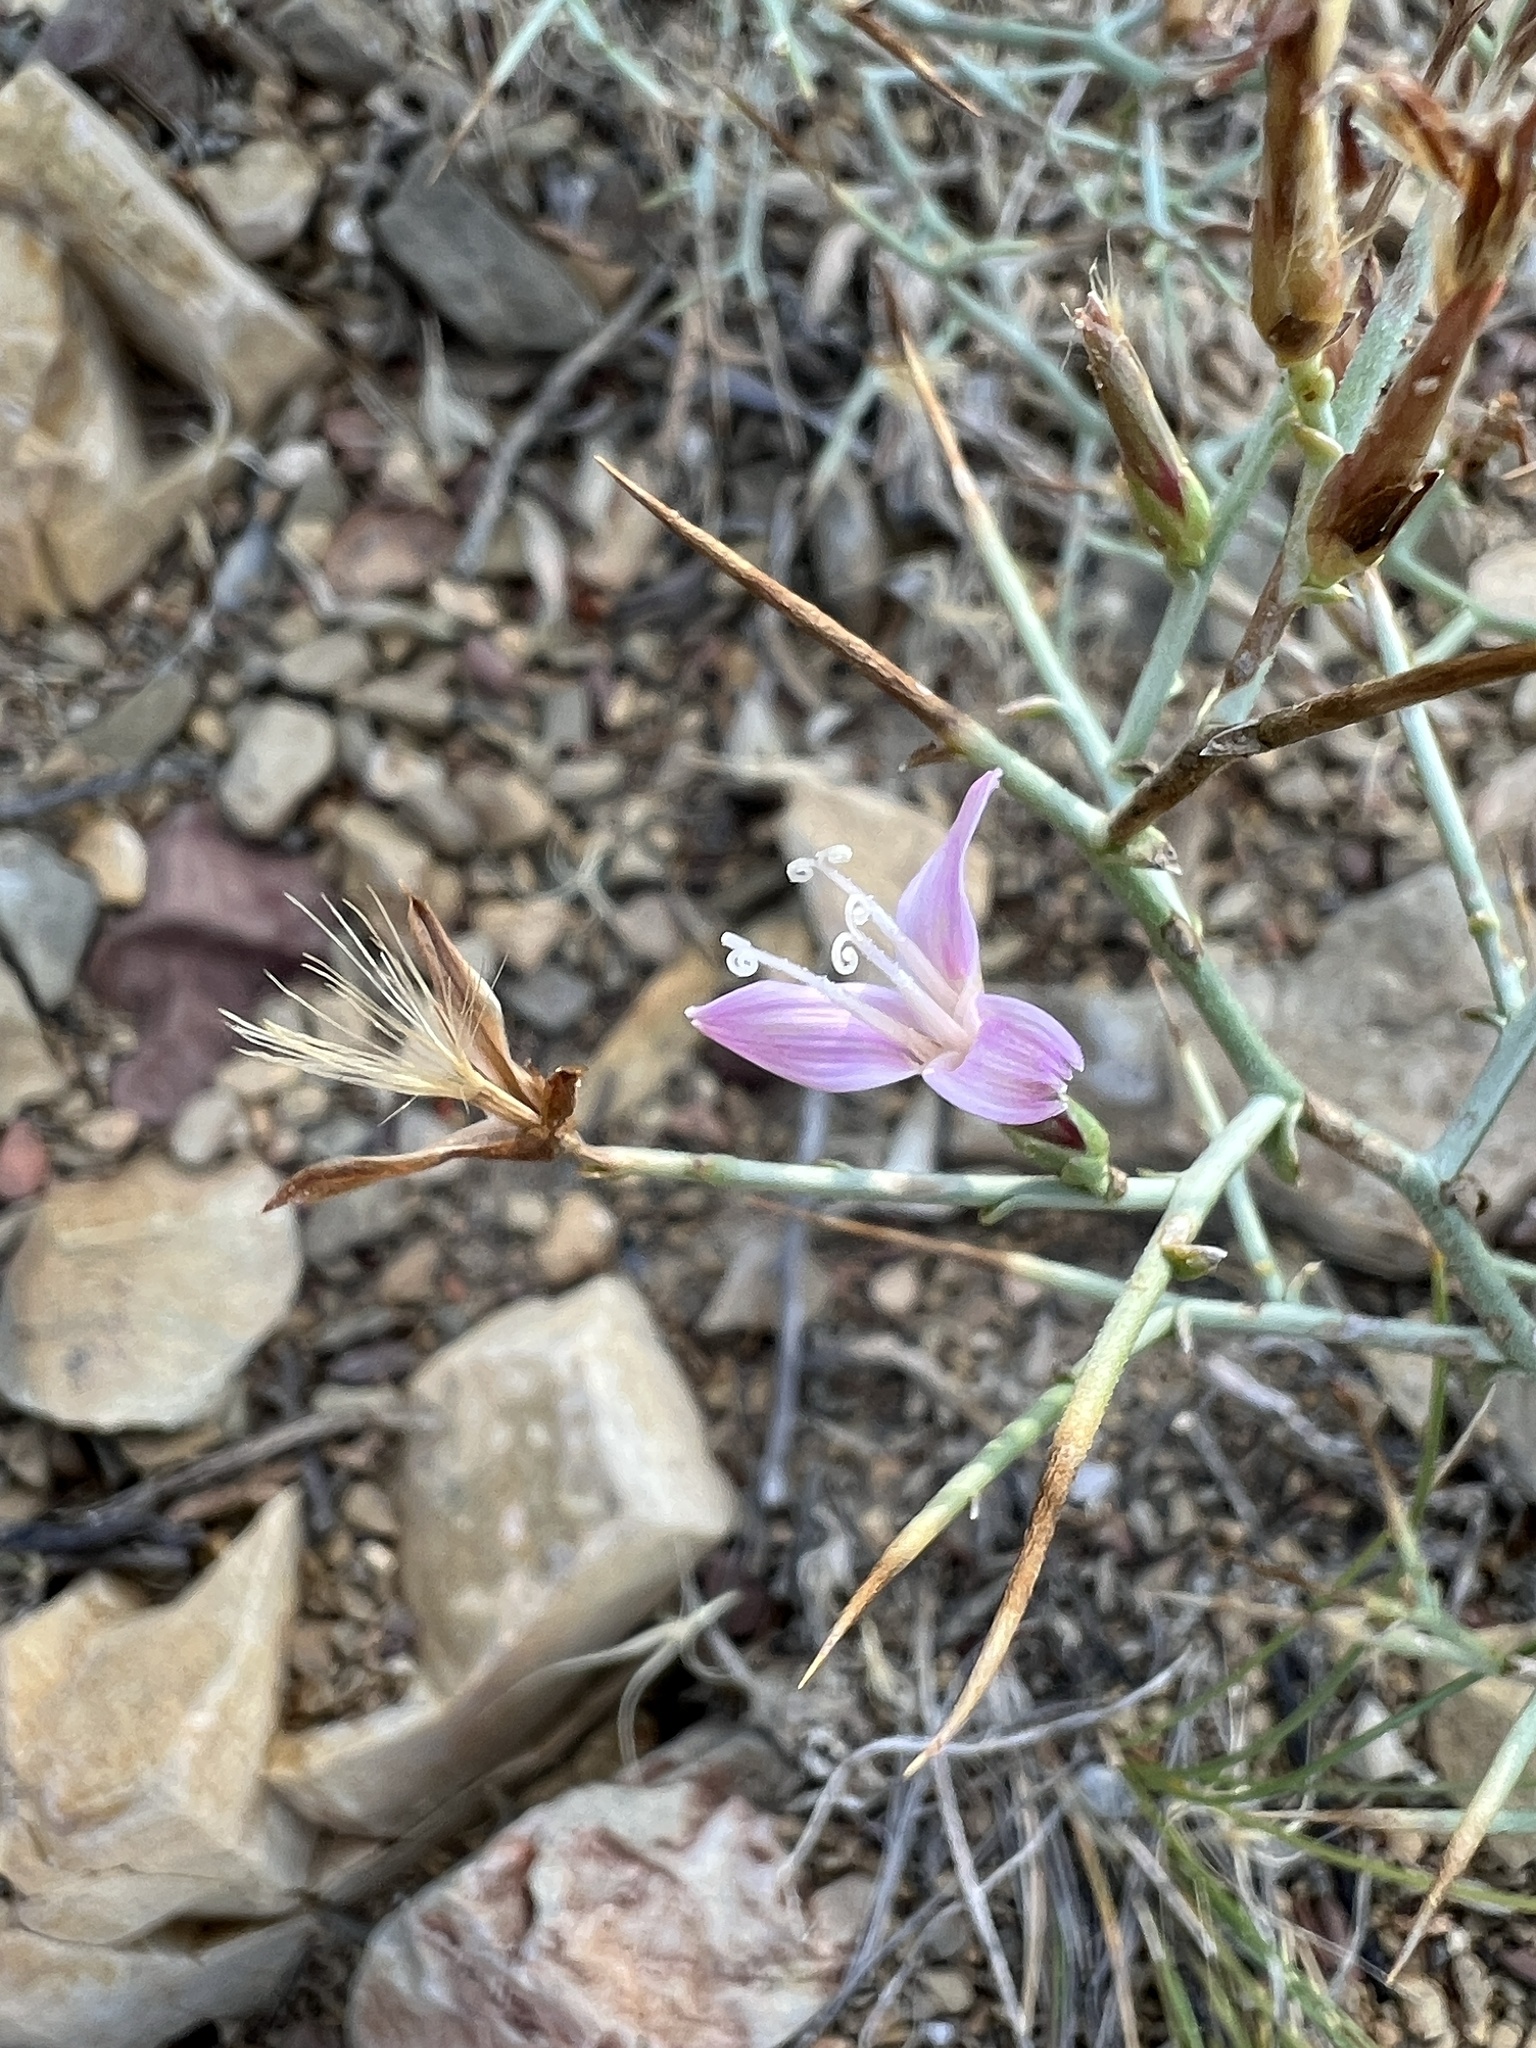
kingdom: Plantae
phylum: Tracheophyta
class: Magnoliopsida
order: Asterales
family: Asteraceae
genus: Pleiacanthus
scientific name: Pleiacanthus spinosus
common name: Thorny skeleton-weed
